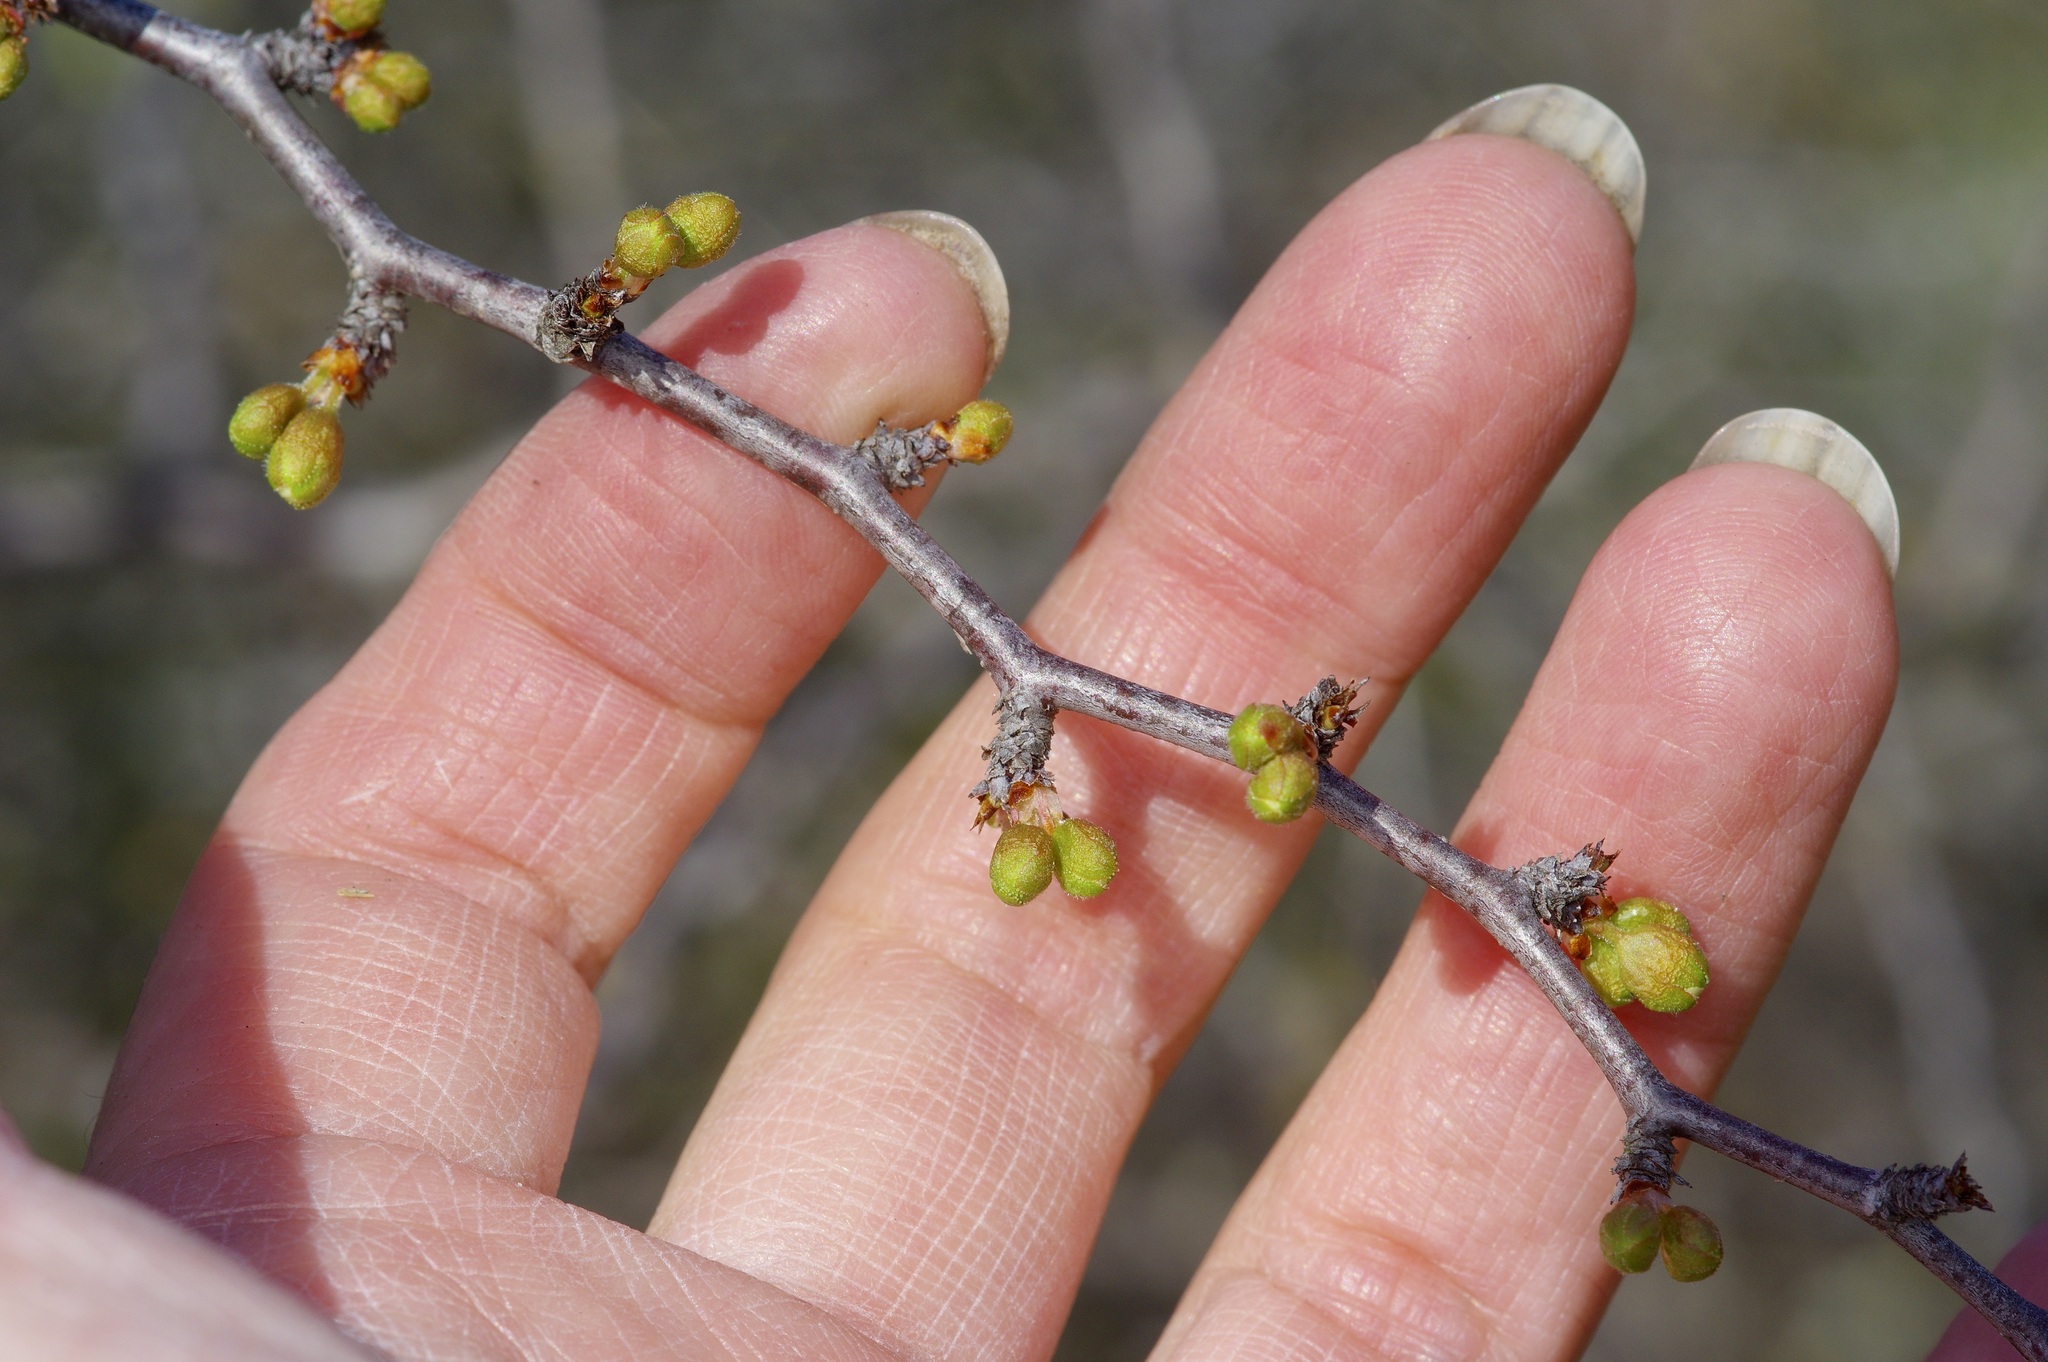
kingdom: Plantae
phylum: Tracheophyta
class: Magnoliopsida
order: Rosales
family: Rosaceae
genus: Prunus
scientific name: Prunus texana
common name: Texas almond cherry
